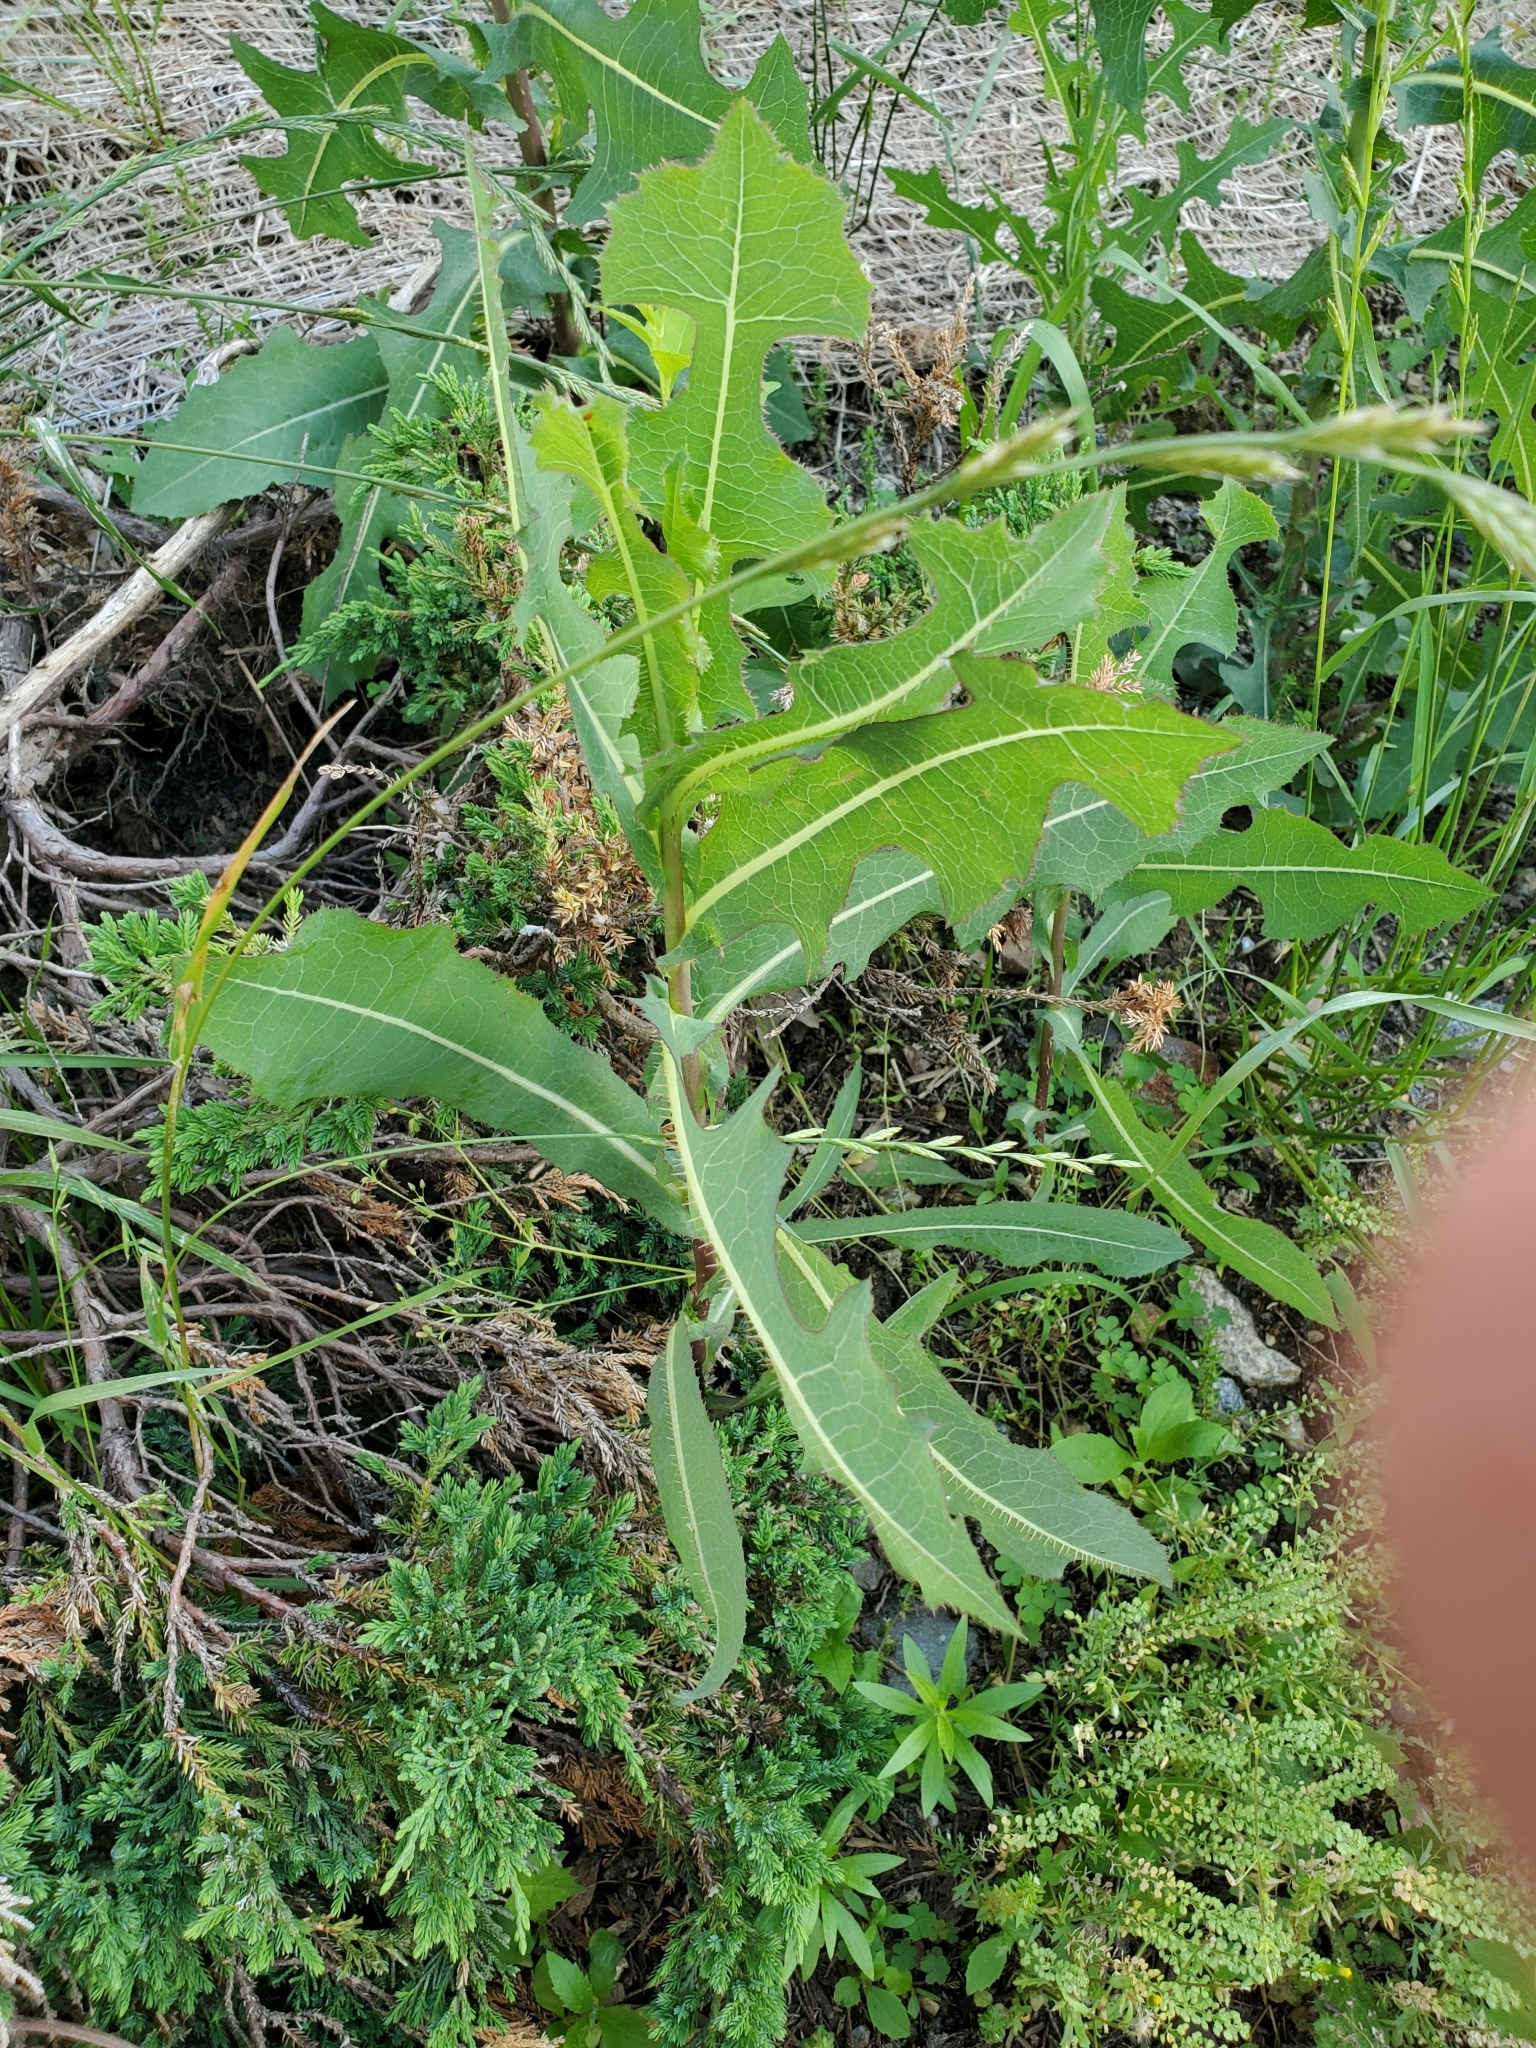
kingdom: Plantae
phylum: Tracheophyta
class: Magnoliopsida
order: Asterales
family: Asteraceae
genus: Lactuca
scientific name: Lactuca serriola
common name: Prickly lettuce
